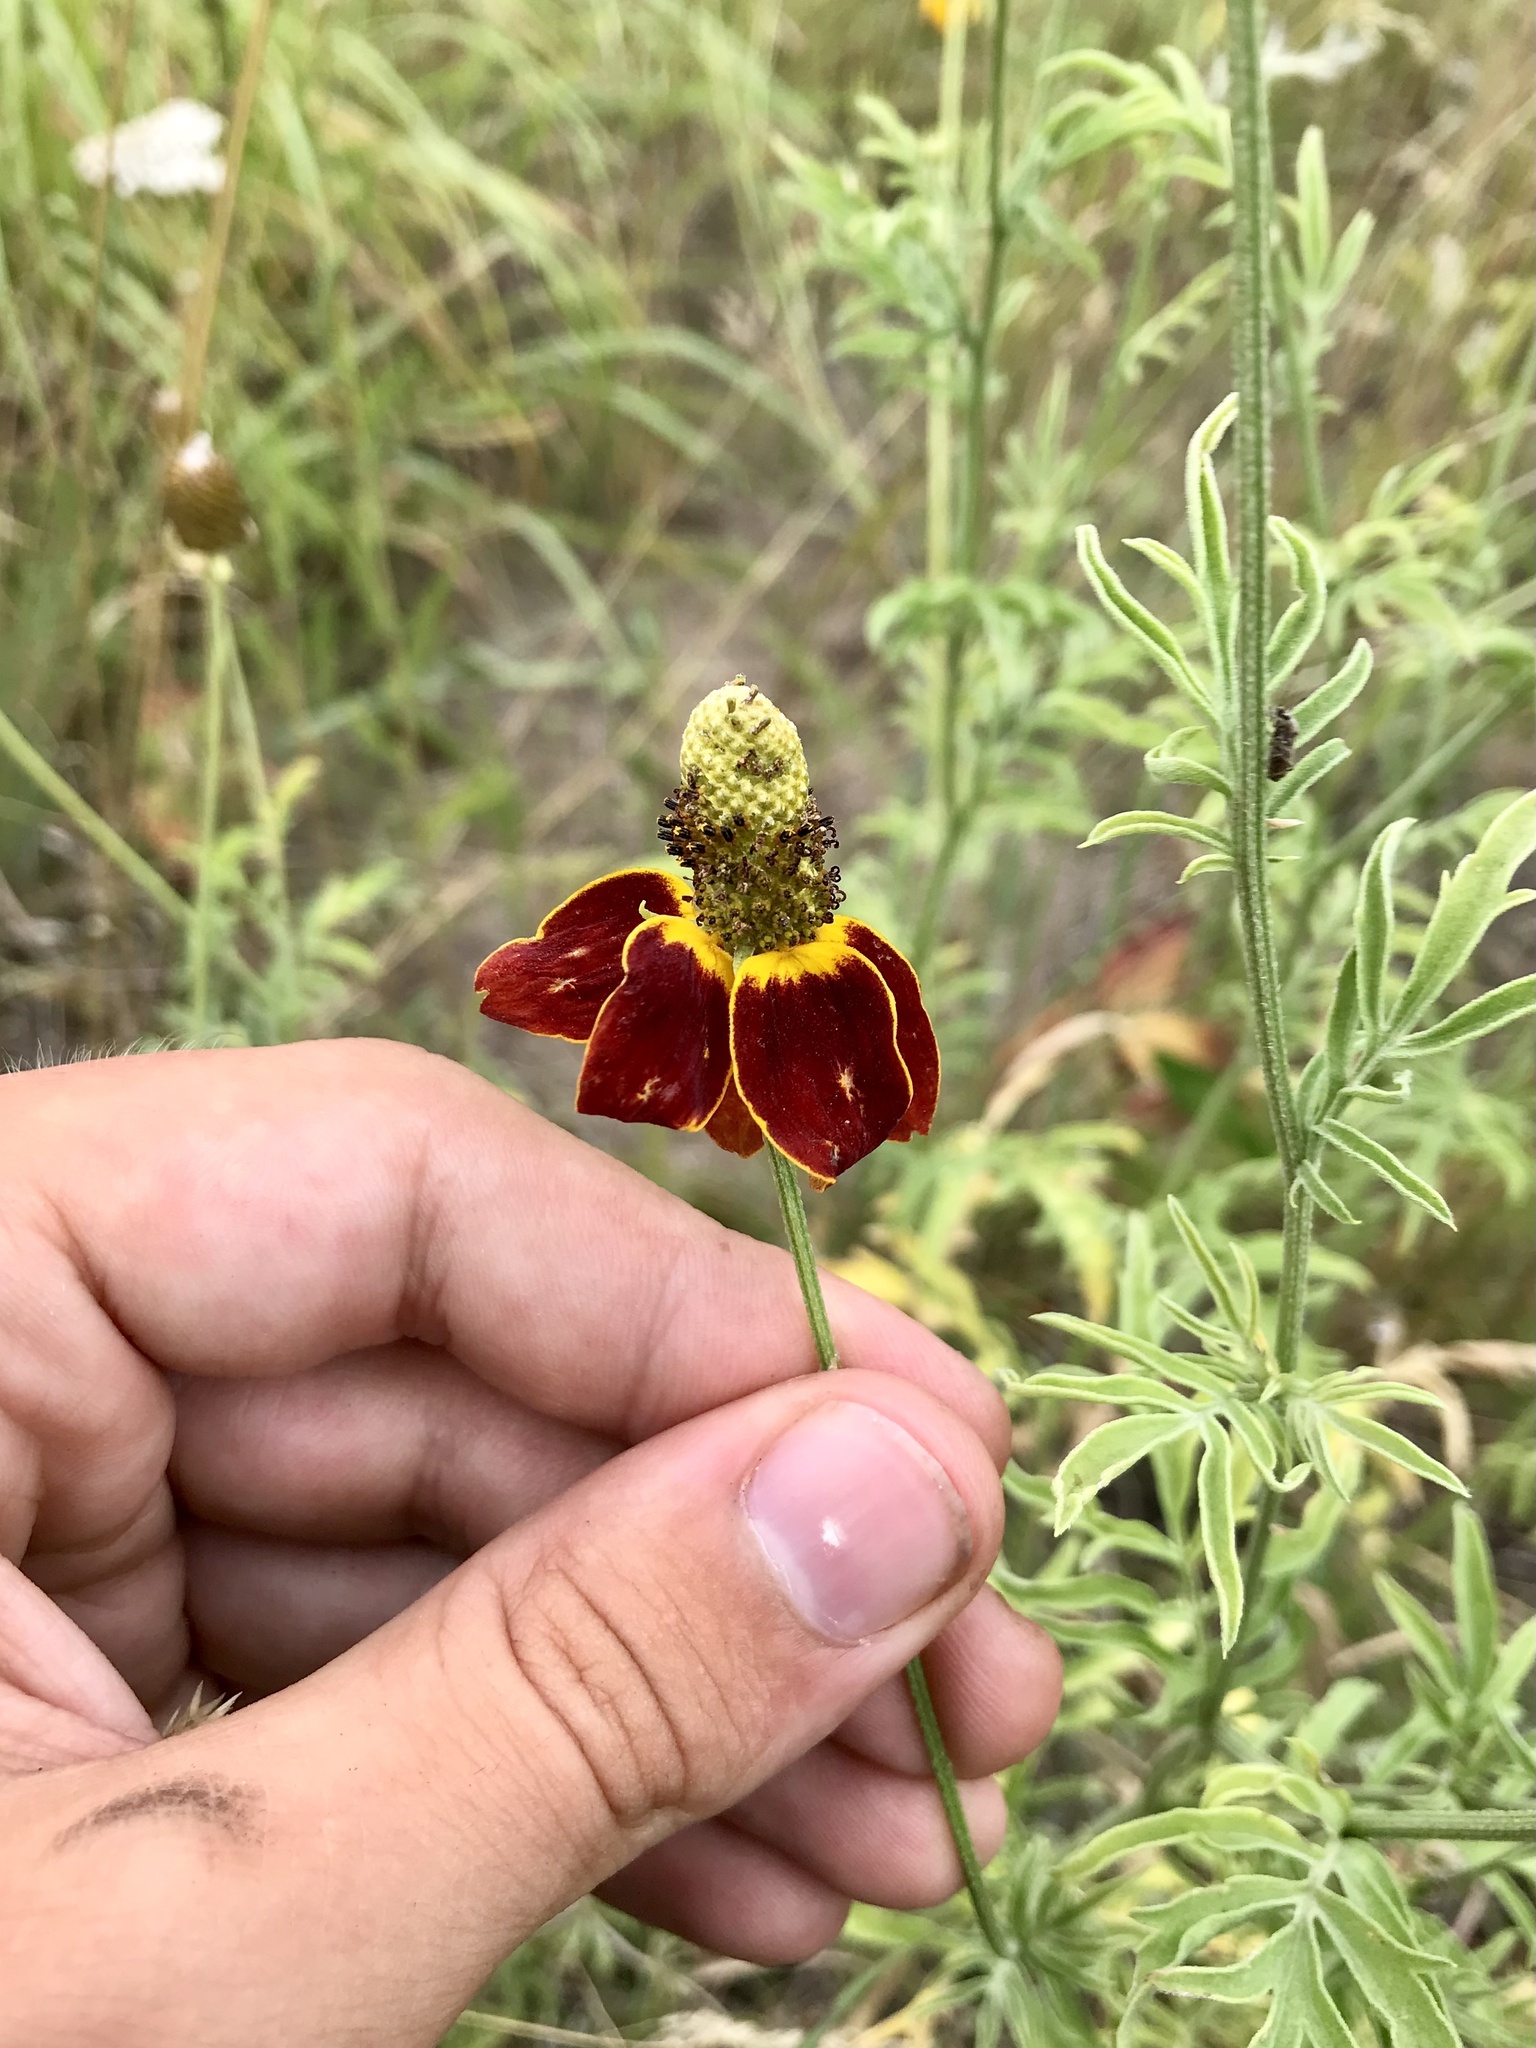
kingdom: Plantae
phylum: Tracheophyta
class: Magnoliopsida
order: Asterales
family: Asteraceae
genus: Ratibida
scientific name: Ratibida columnifera
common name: Prairie coneflower
